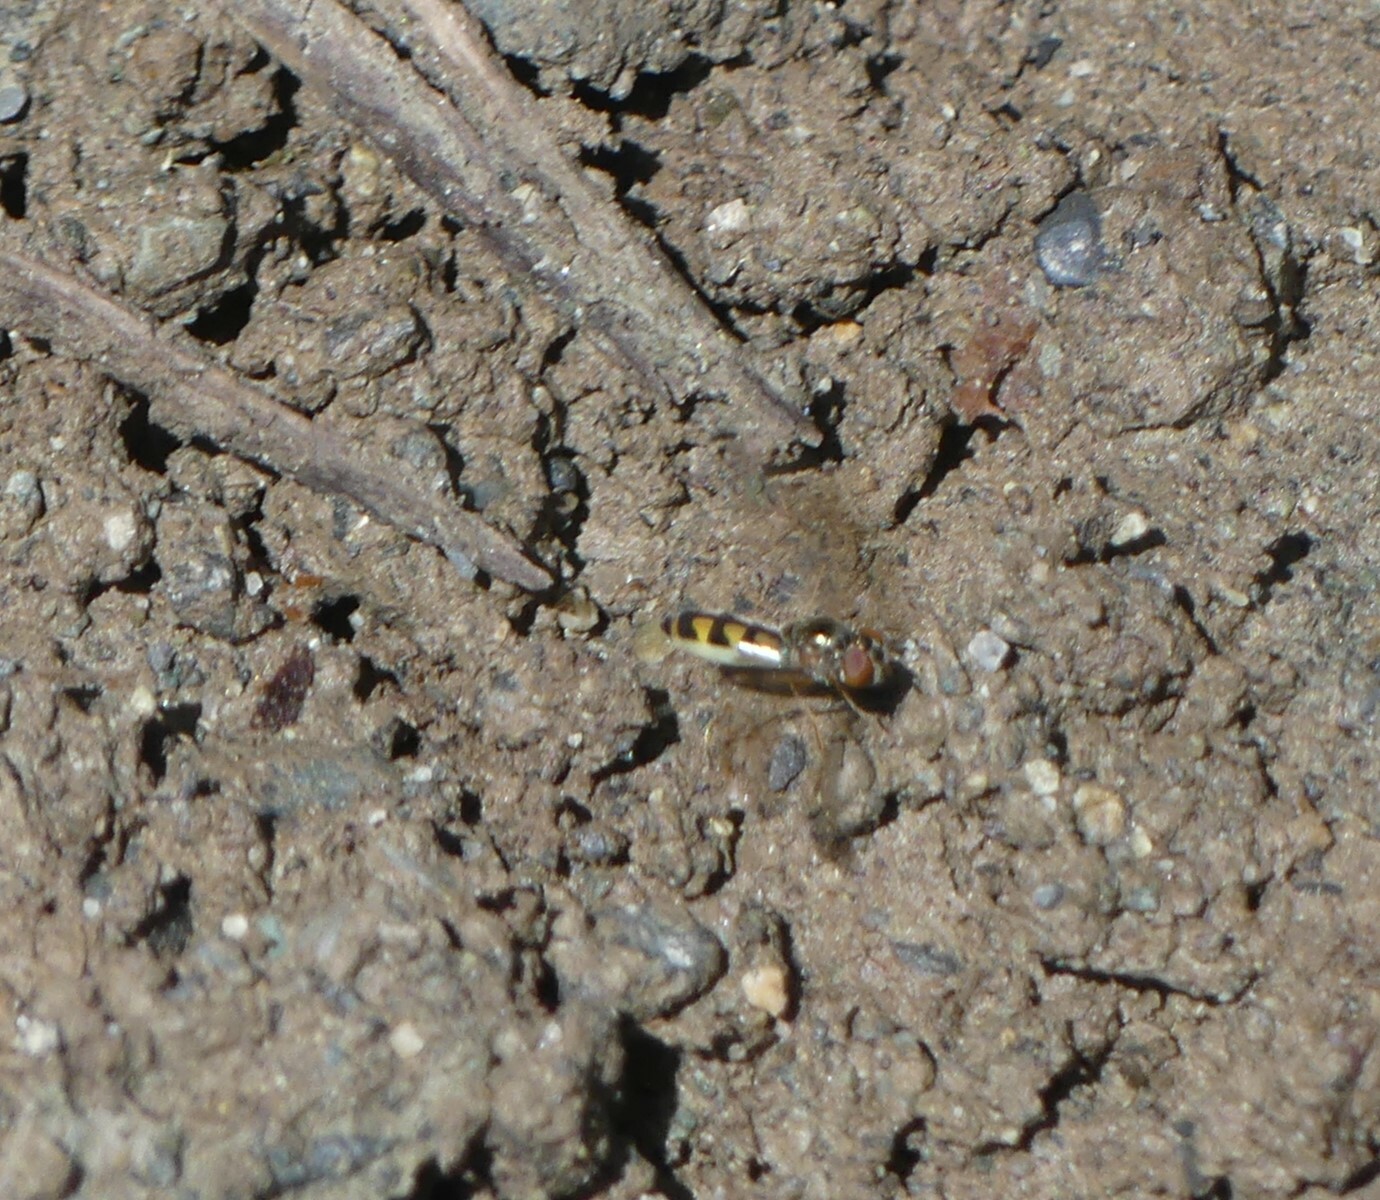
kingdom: Animalia
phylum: Arthropoda
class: Insecta
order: Diptera
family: Syrphidae
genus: Melanostoma
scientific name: Melanostoma mellina
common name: Hover fly
